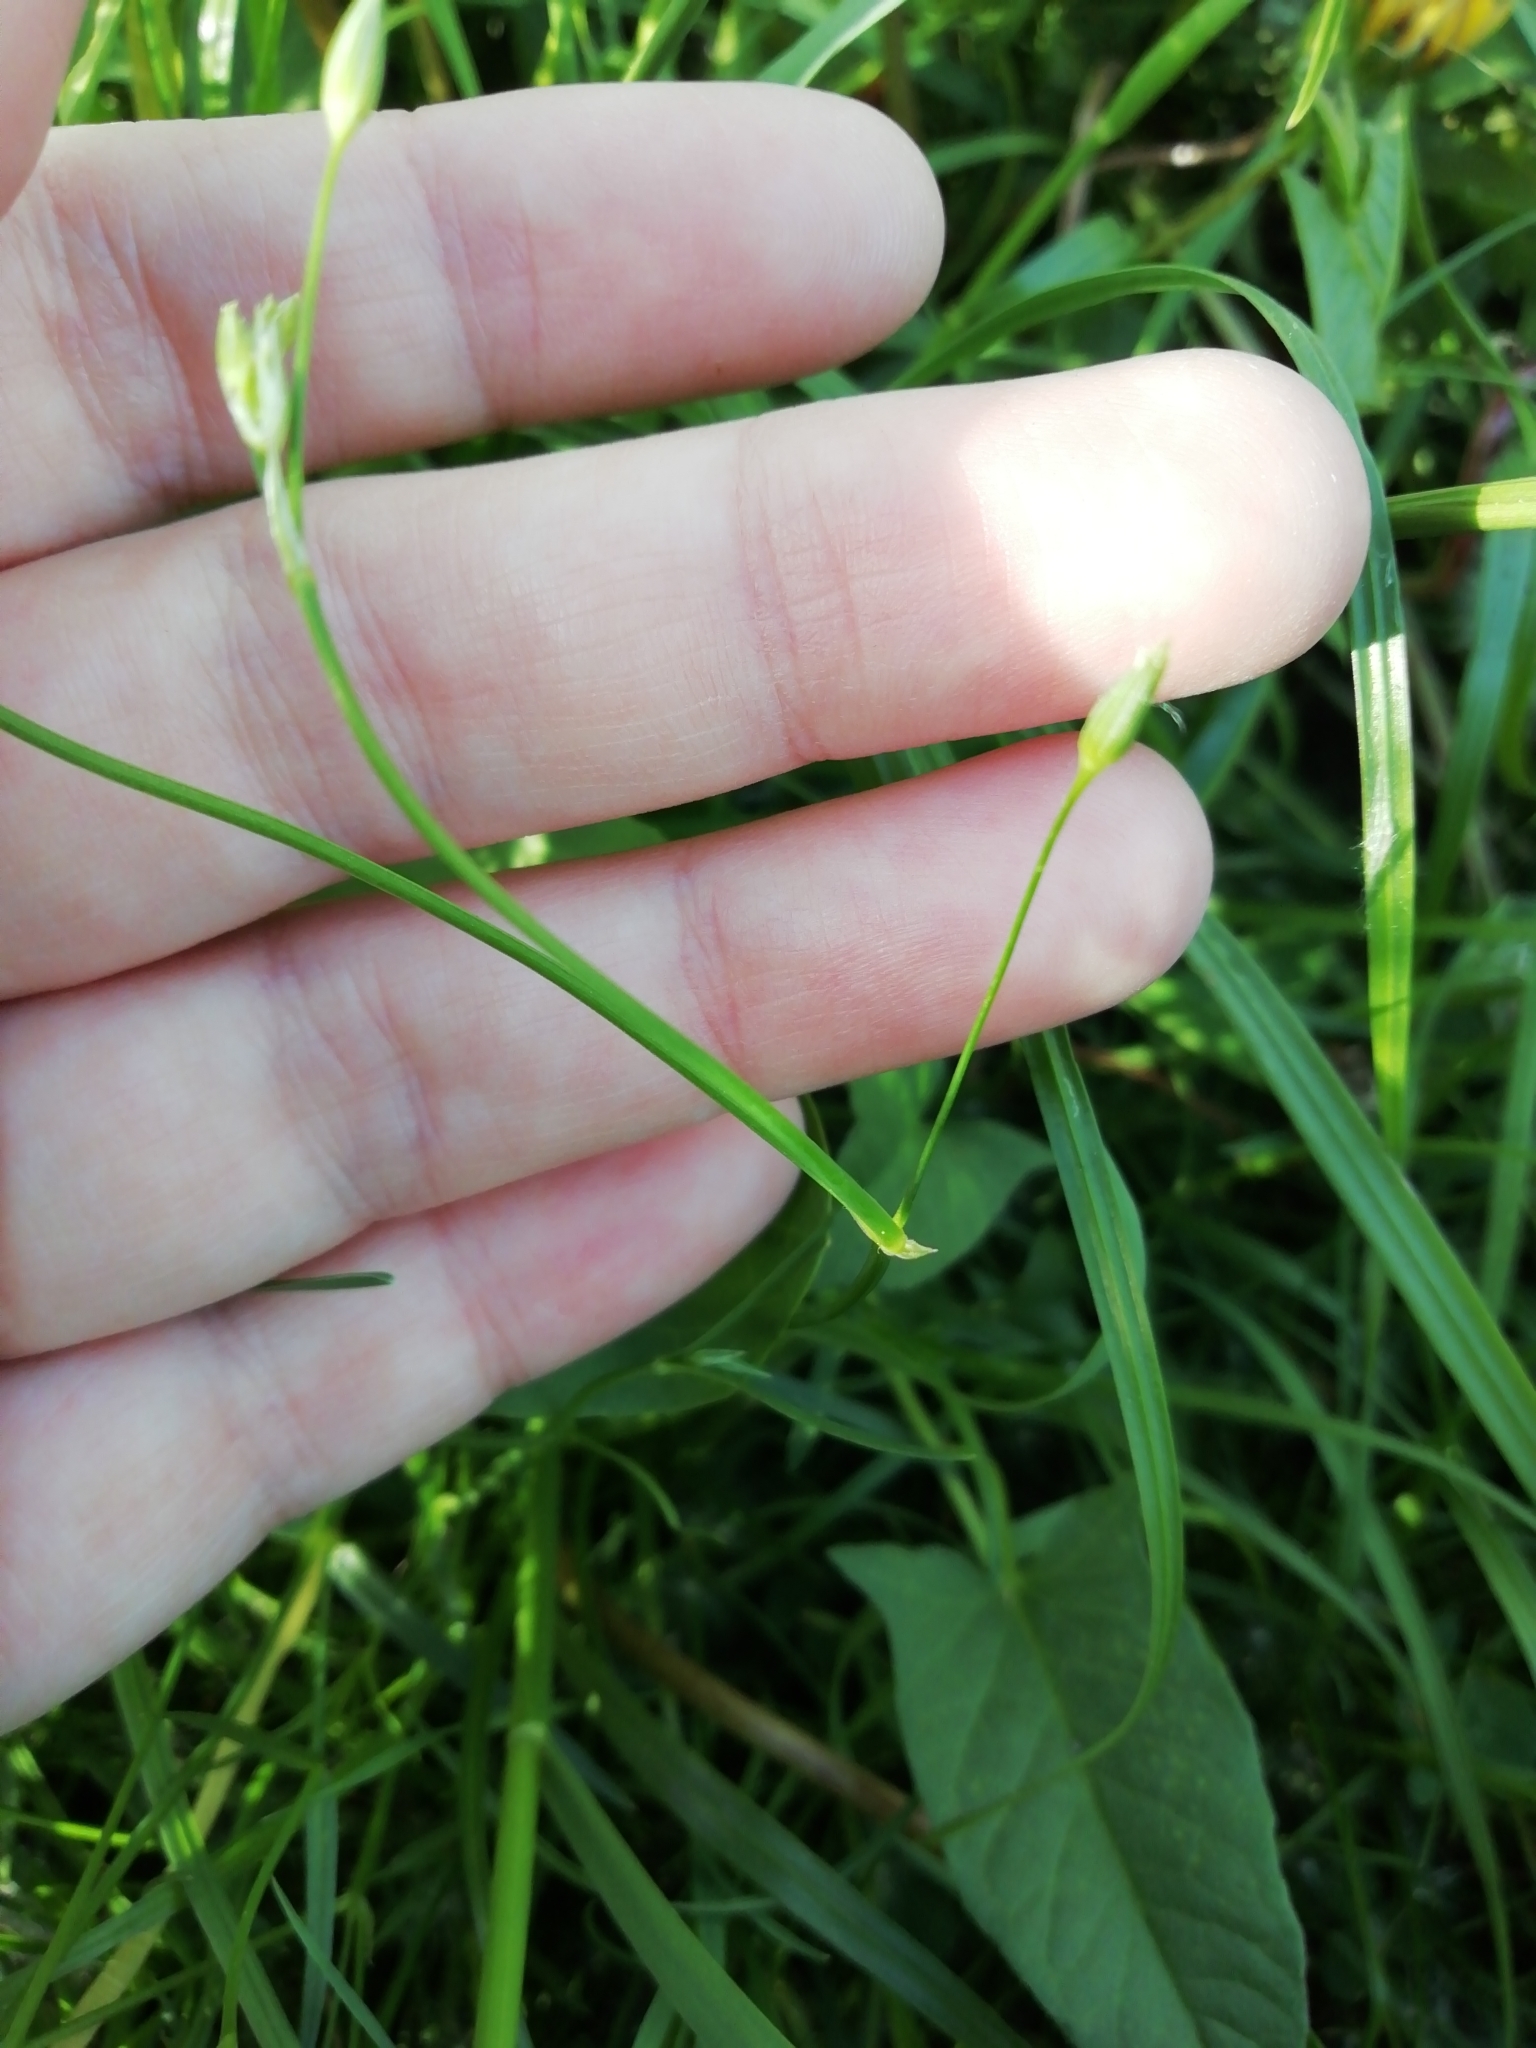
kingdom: Plantae
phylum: Tracheophyta
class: Magnoliopsida
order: Caryophyllales
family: Caryophyllaceae
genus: Stellaria
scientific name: Stellaria graminea
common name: Grass-like starwort
